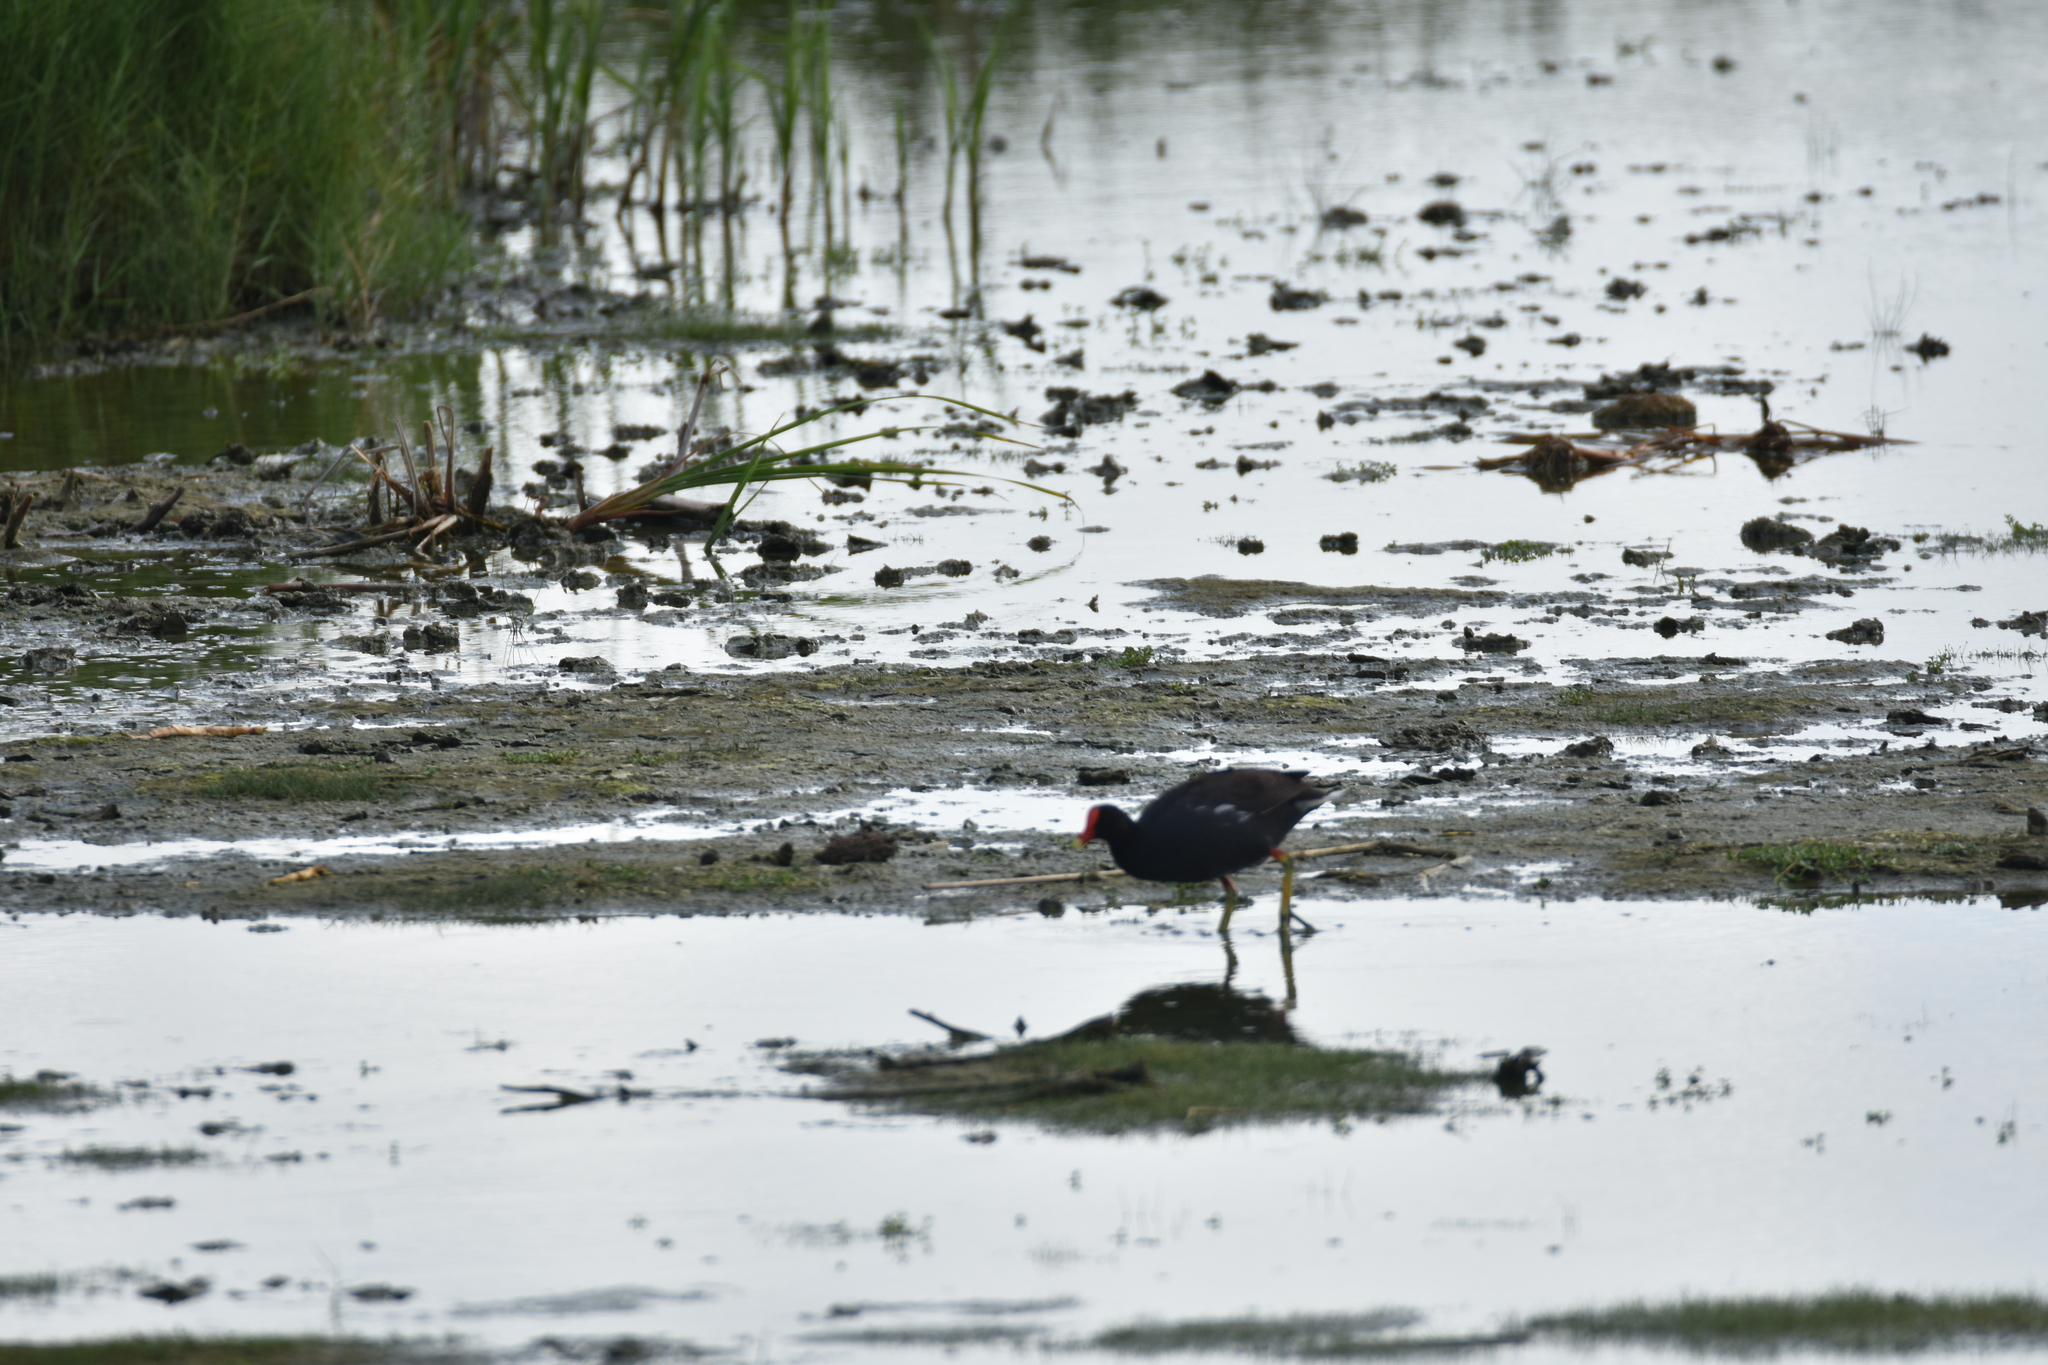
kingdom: Animalia
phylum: Chordata
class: Aves
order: Gruiformes
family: Rallidae
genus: Gallinula
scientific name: Gallinula chloropus
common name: Common moorhen
